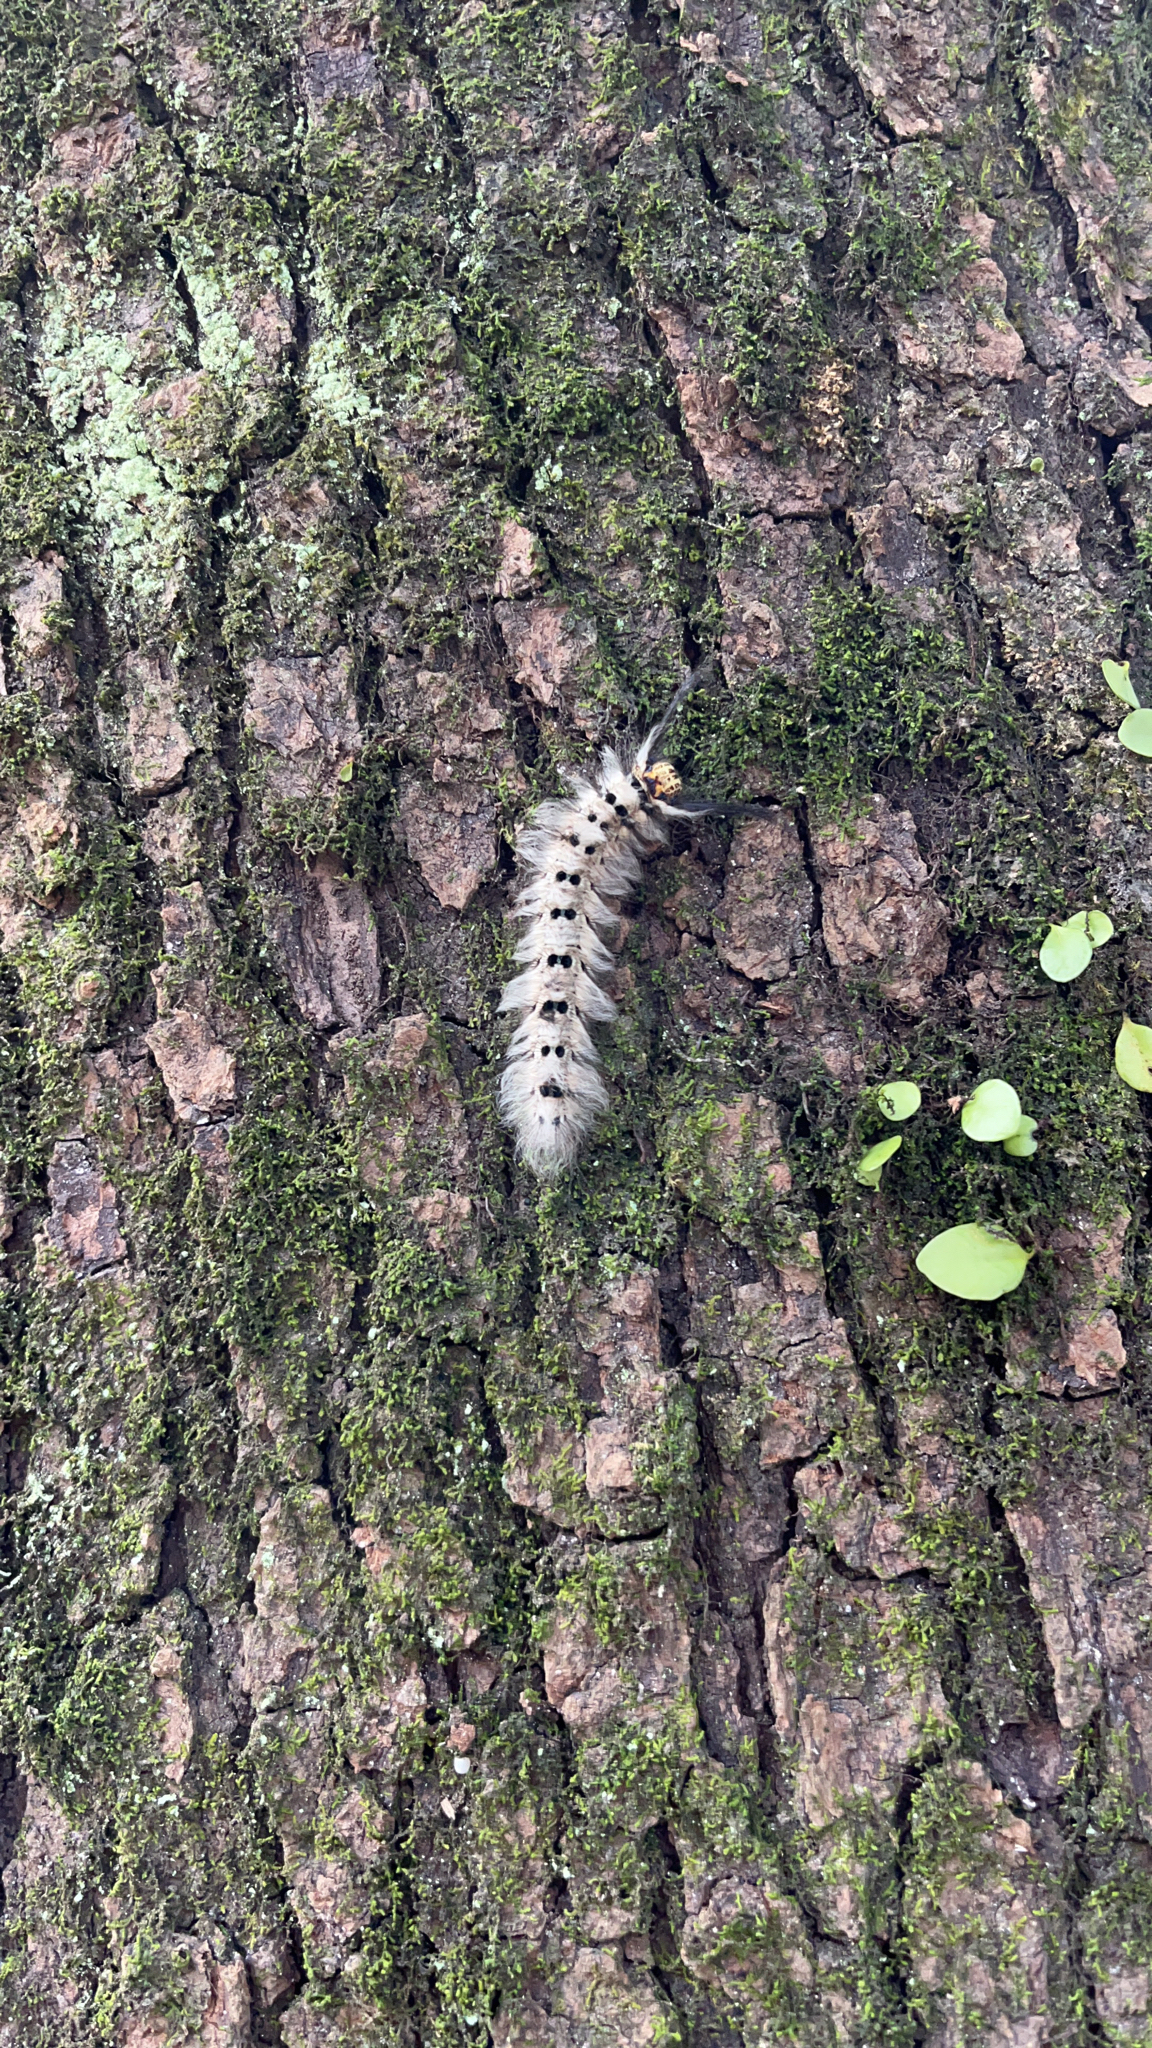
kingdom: Animalia
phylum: Arthropoda
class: Insecta
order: Lepidoptera
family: Lasiocampidae
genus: Trabala
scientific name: Trabala vishnou
